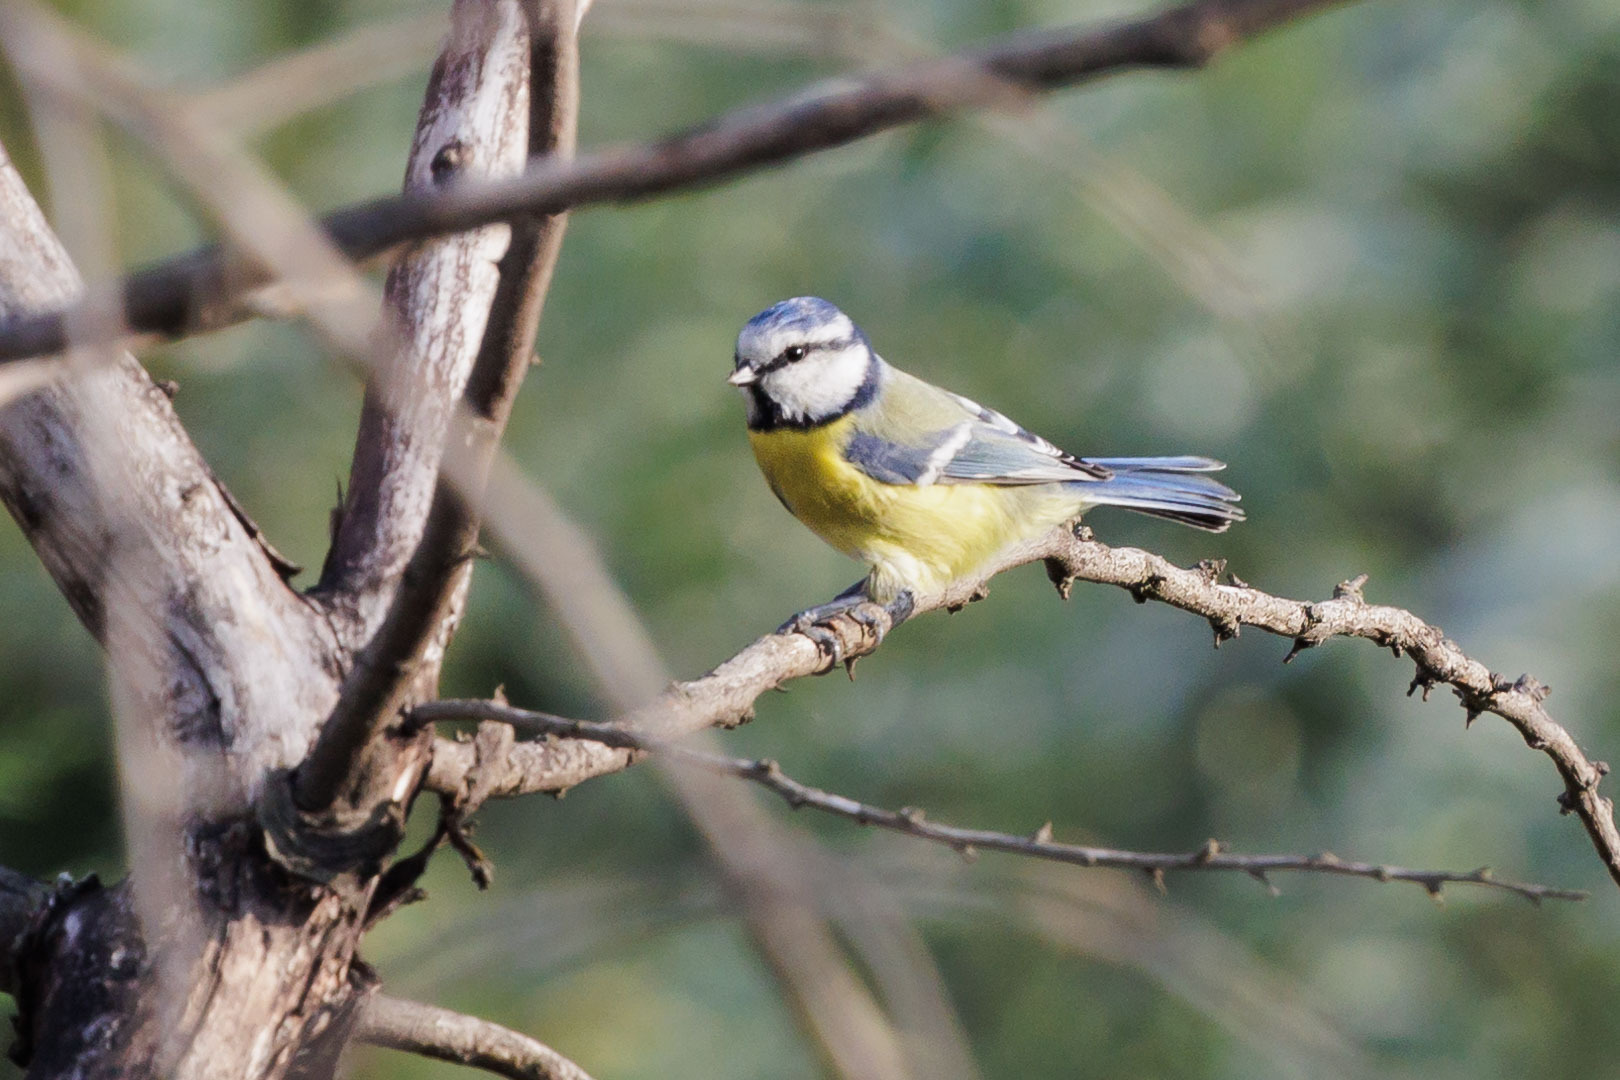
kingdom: Animalia
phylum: Chordata
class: Aves
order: Passeriformes
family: Paridae
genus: Cyanistes
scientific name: Cyanistes caeruleus
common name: Eurasian blue tit
